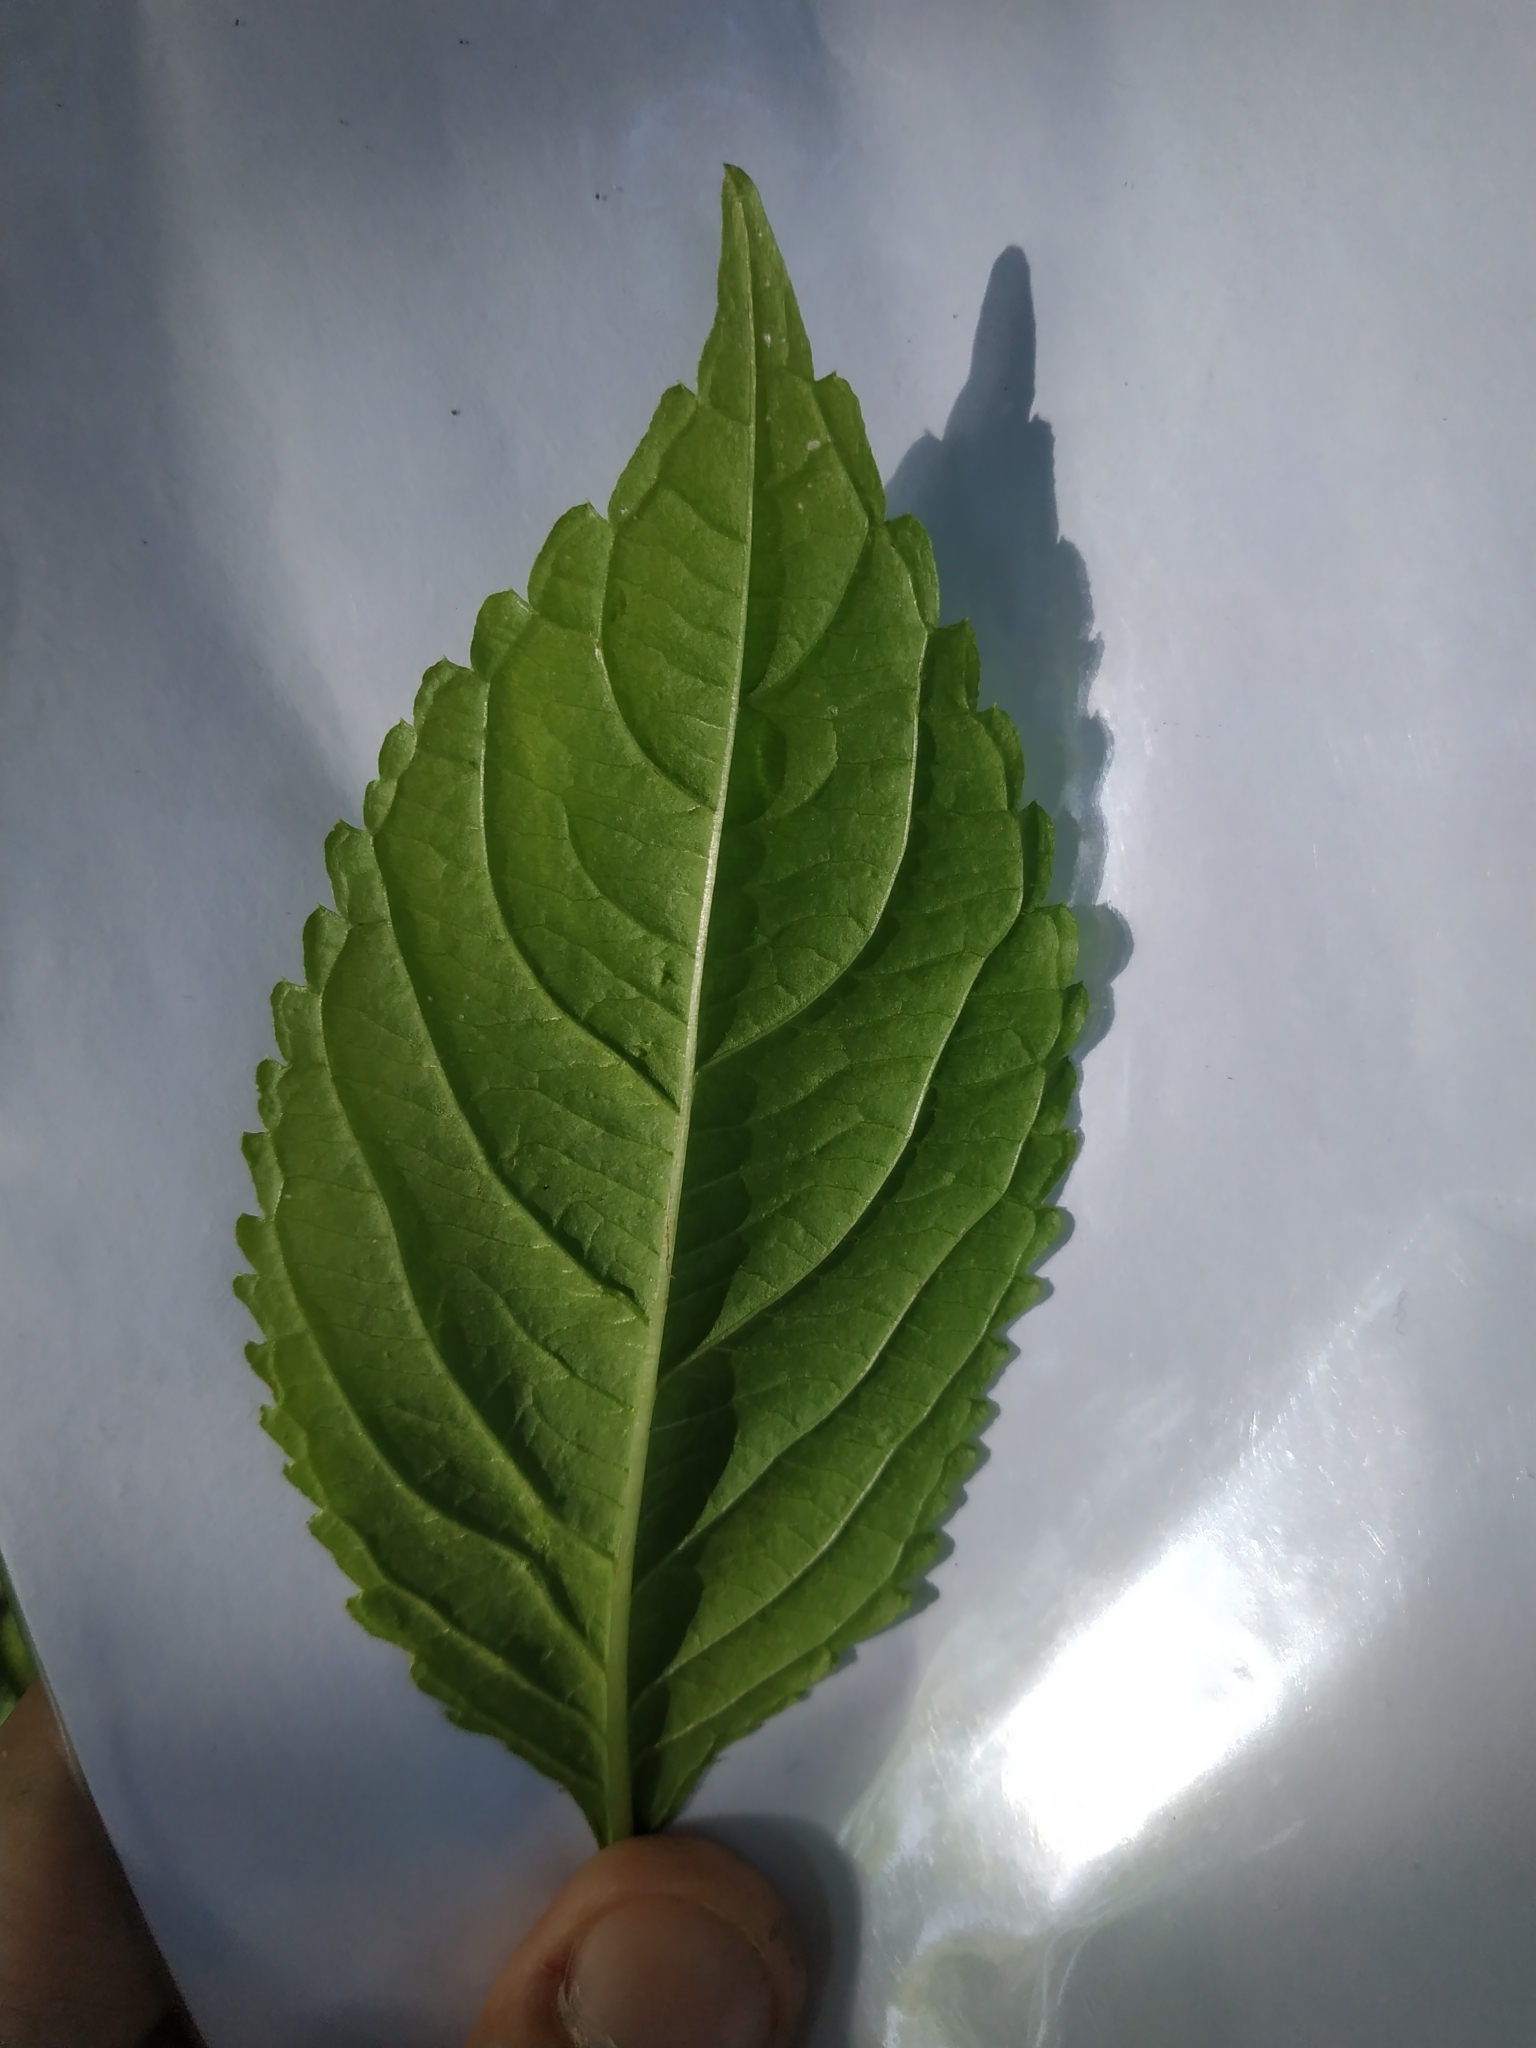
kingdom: Plantae
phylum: Tracheophyta
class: Magnoliopsida
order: Ericales
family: Balsaminaceae
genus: Impatiens
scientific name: Impatiens parviflora
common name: Small balsam
